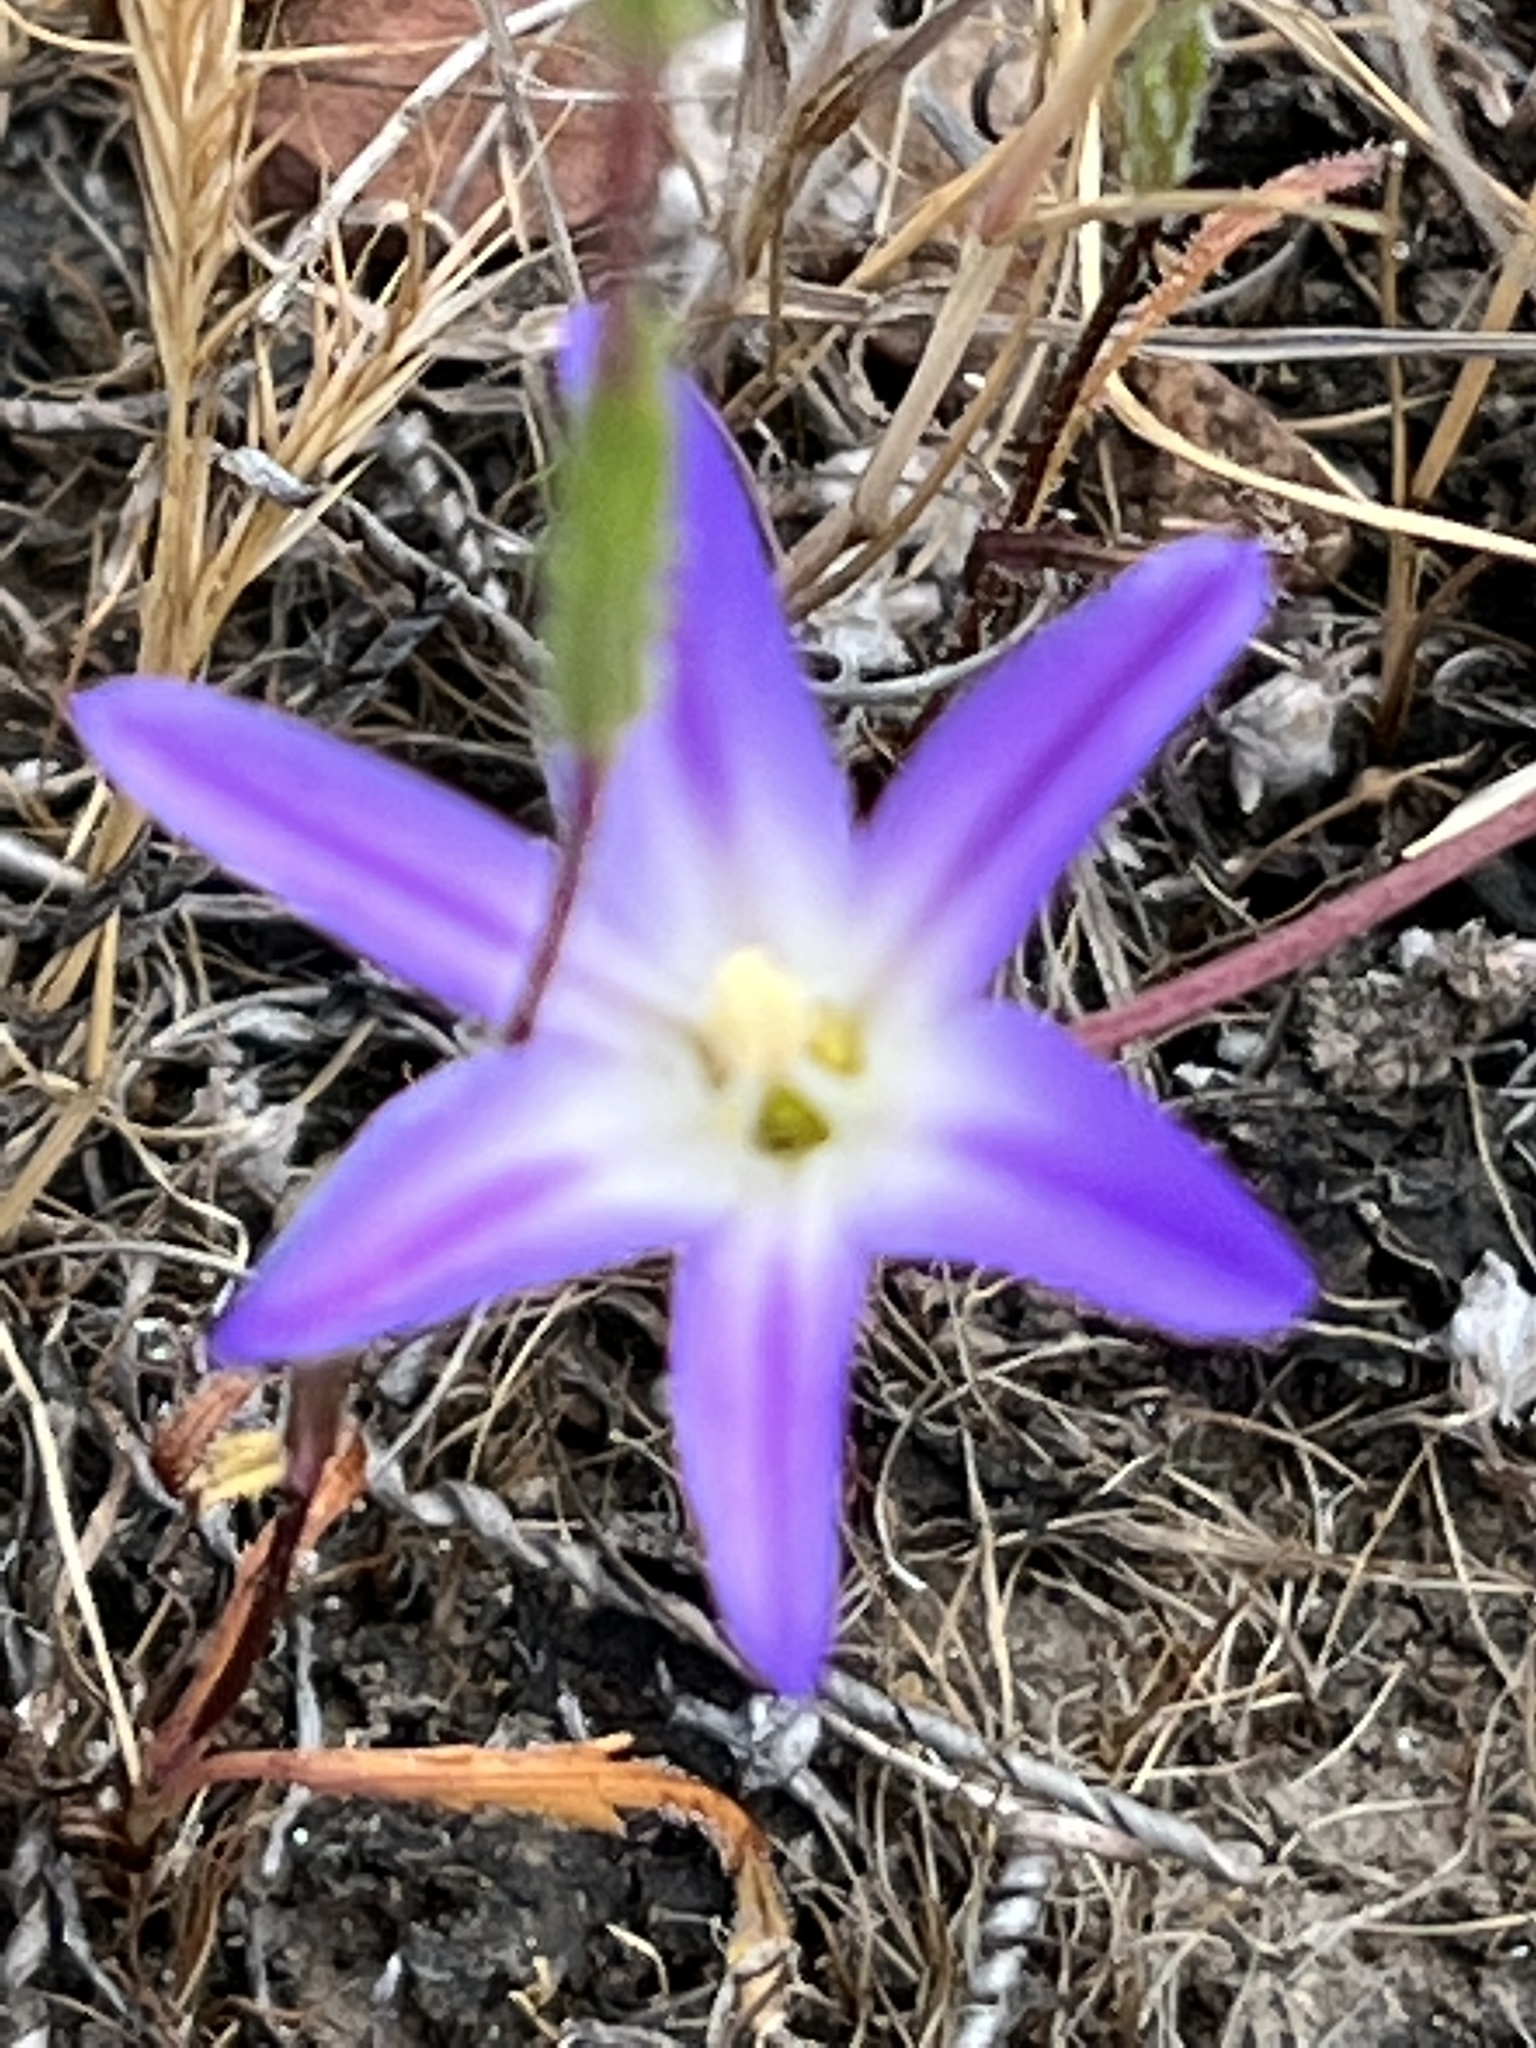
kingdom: Plantae
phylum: Tracheophyta
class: Liliopsida
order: Asparagales
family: Asparagaceae
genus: Brodiaea
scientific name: Brodiaea orcuttii
